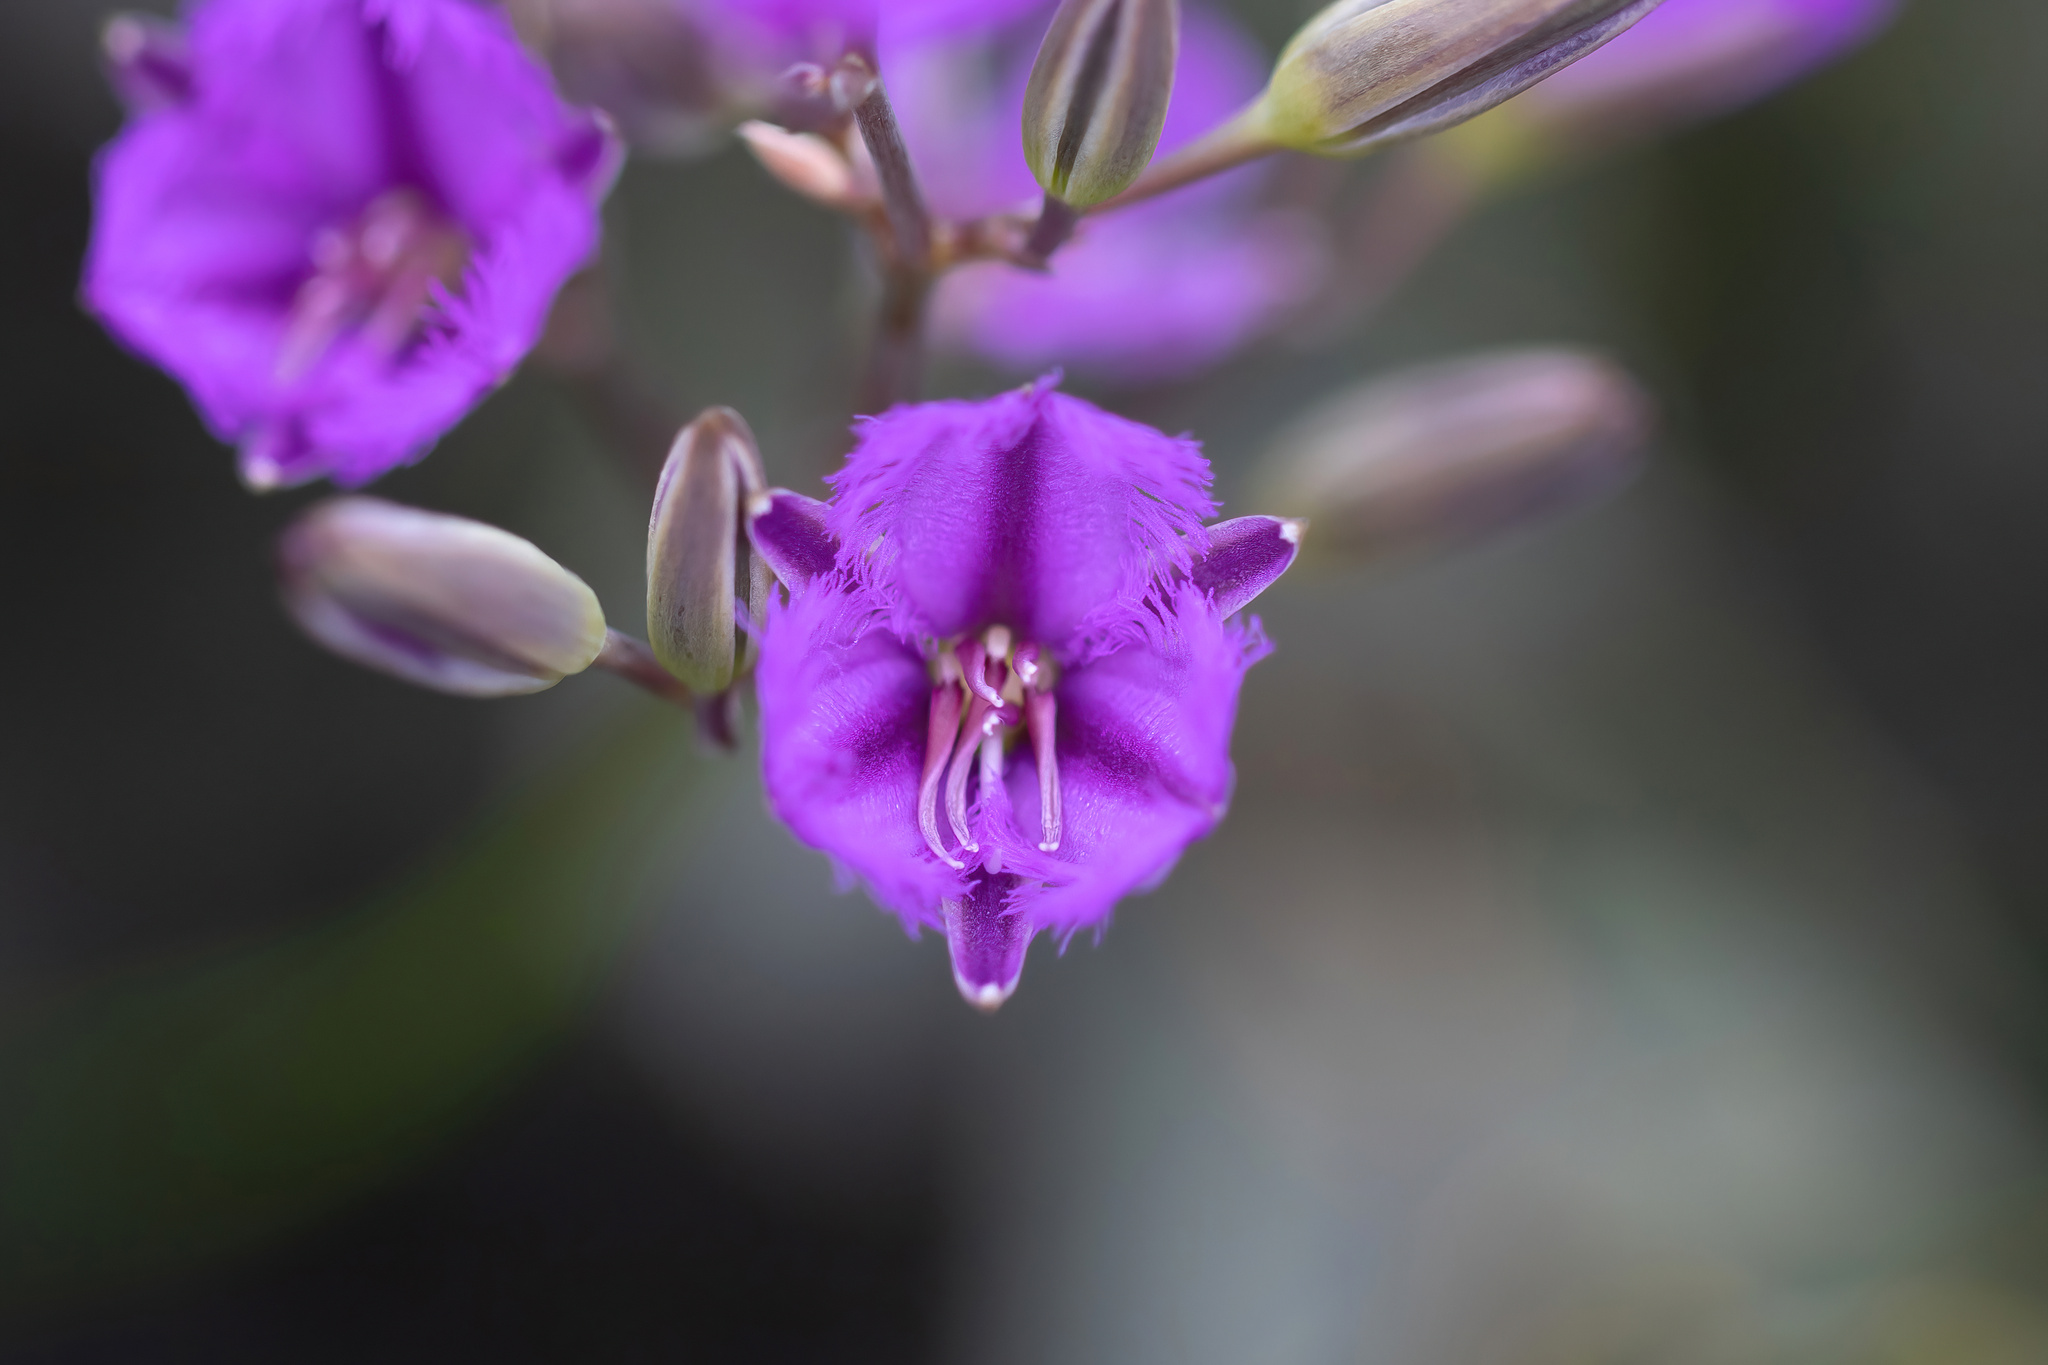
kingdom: Plantae
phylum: Tracheophyta
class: Liliopsida
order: Asparagales
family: Asparagaceae
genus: Thysanotus
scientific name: Thysanotus sparteus
